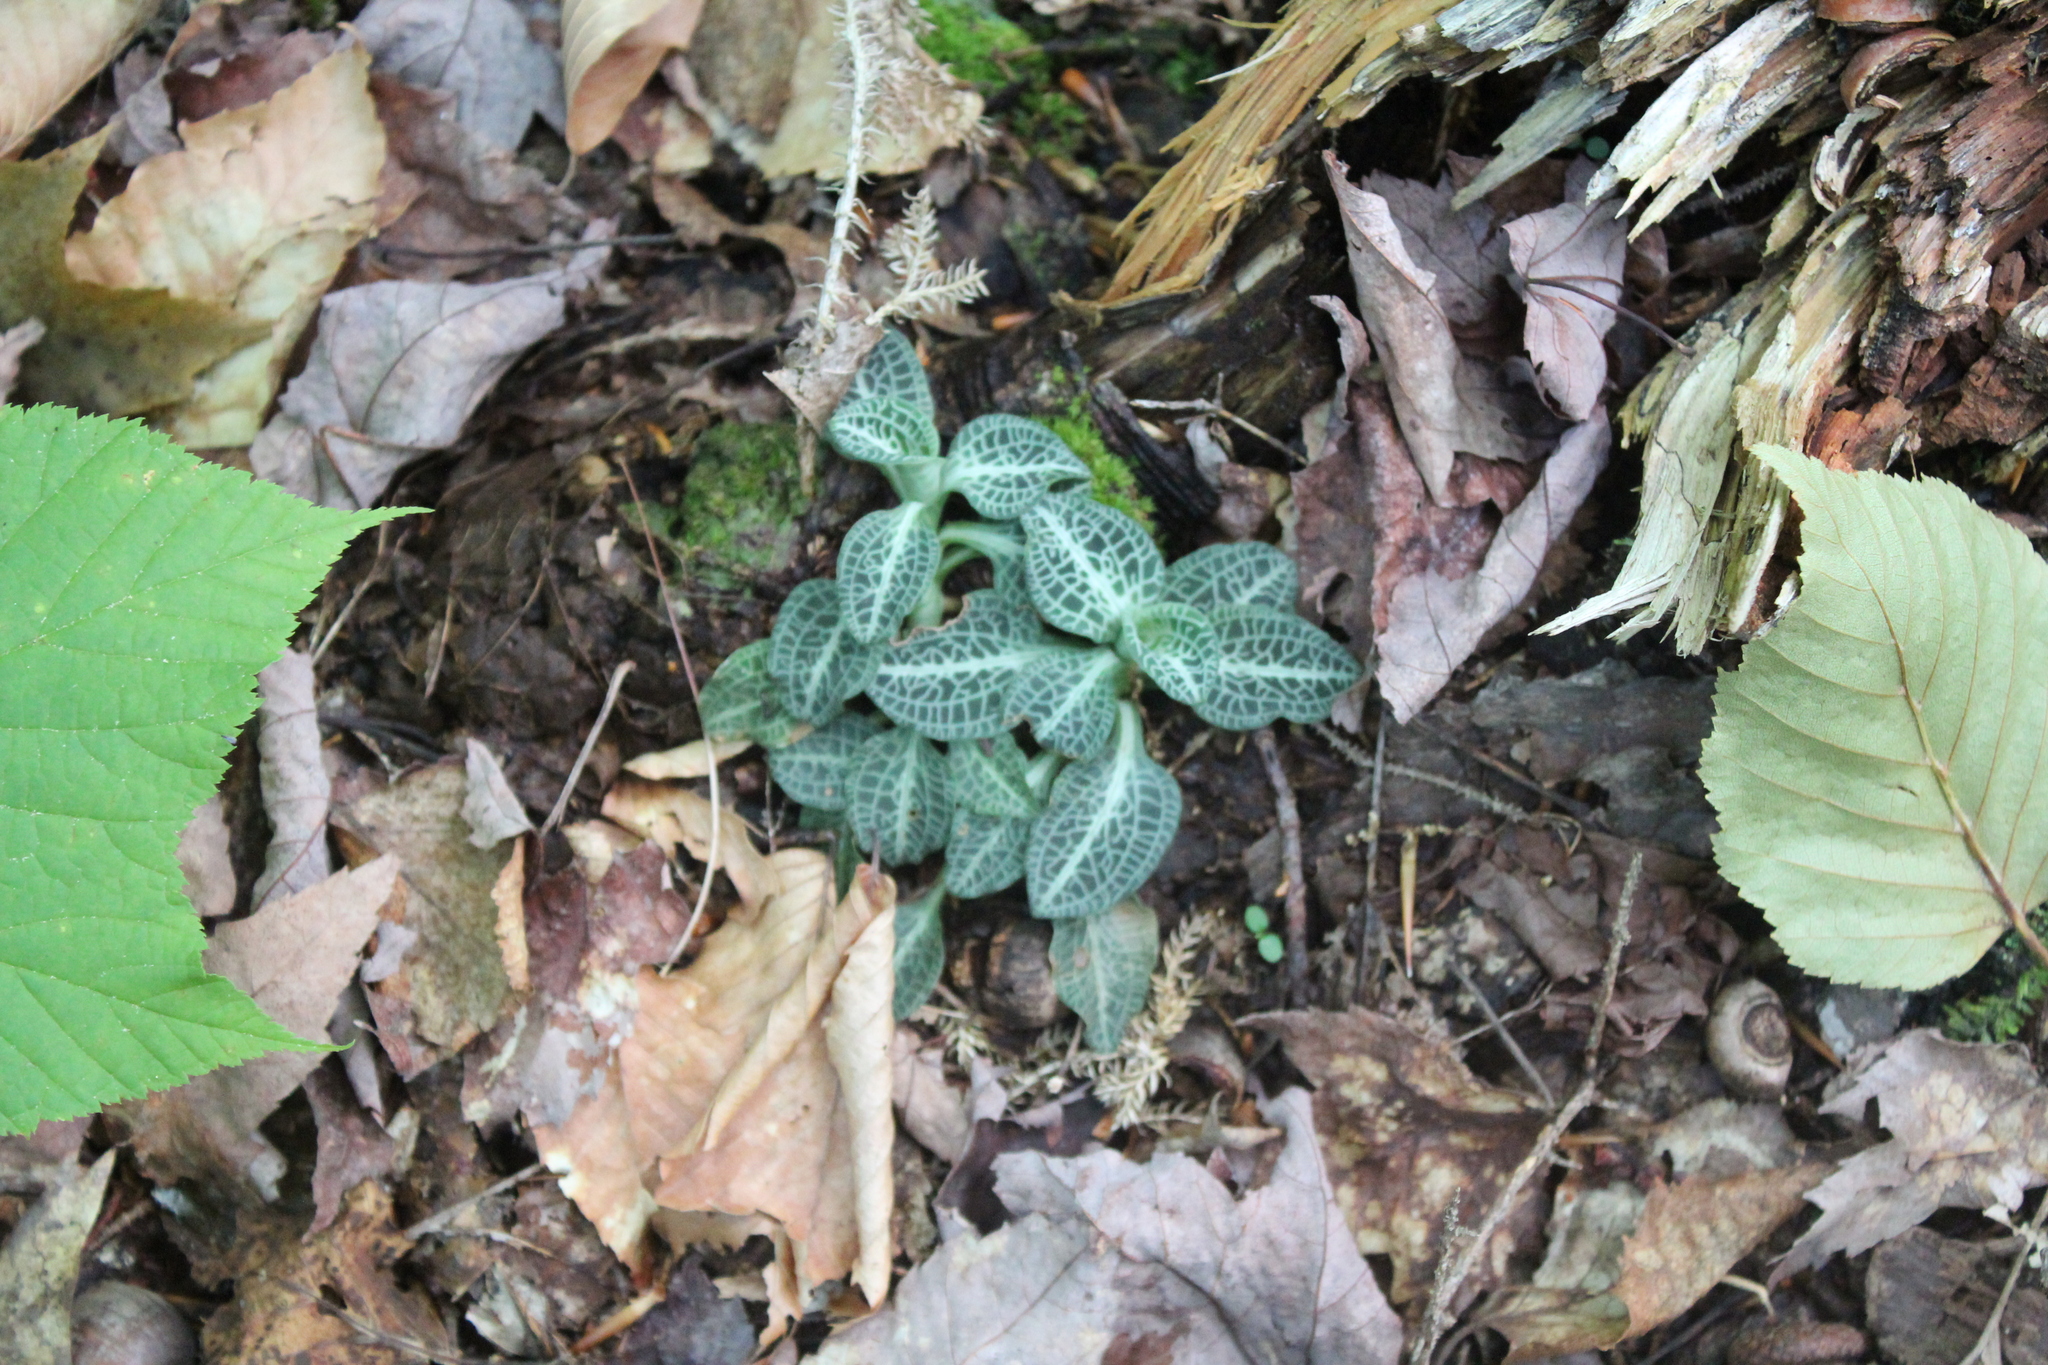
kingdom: Plantae
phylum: Tracheophyta
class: Liliopsida
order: Asparagales
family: Orchidaceae
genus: Goodyera
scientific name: Goodyera pubescens
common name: Downy rattlesnake-plantain
